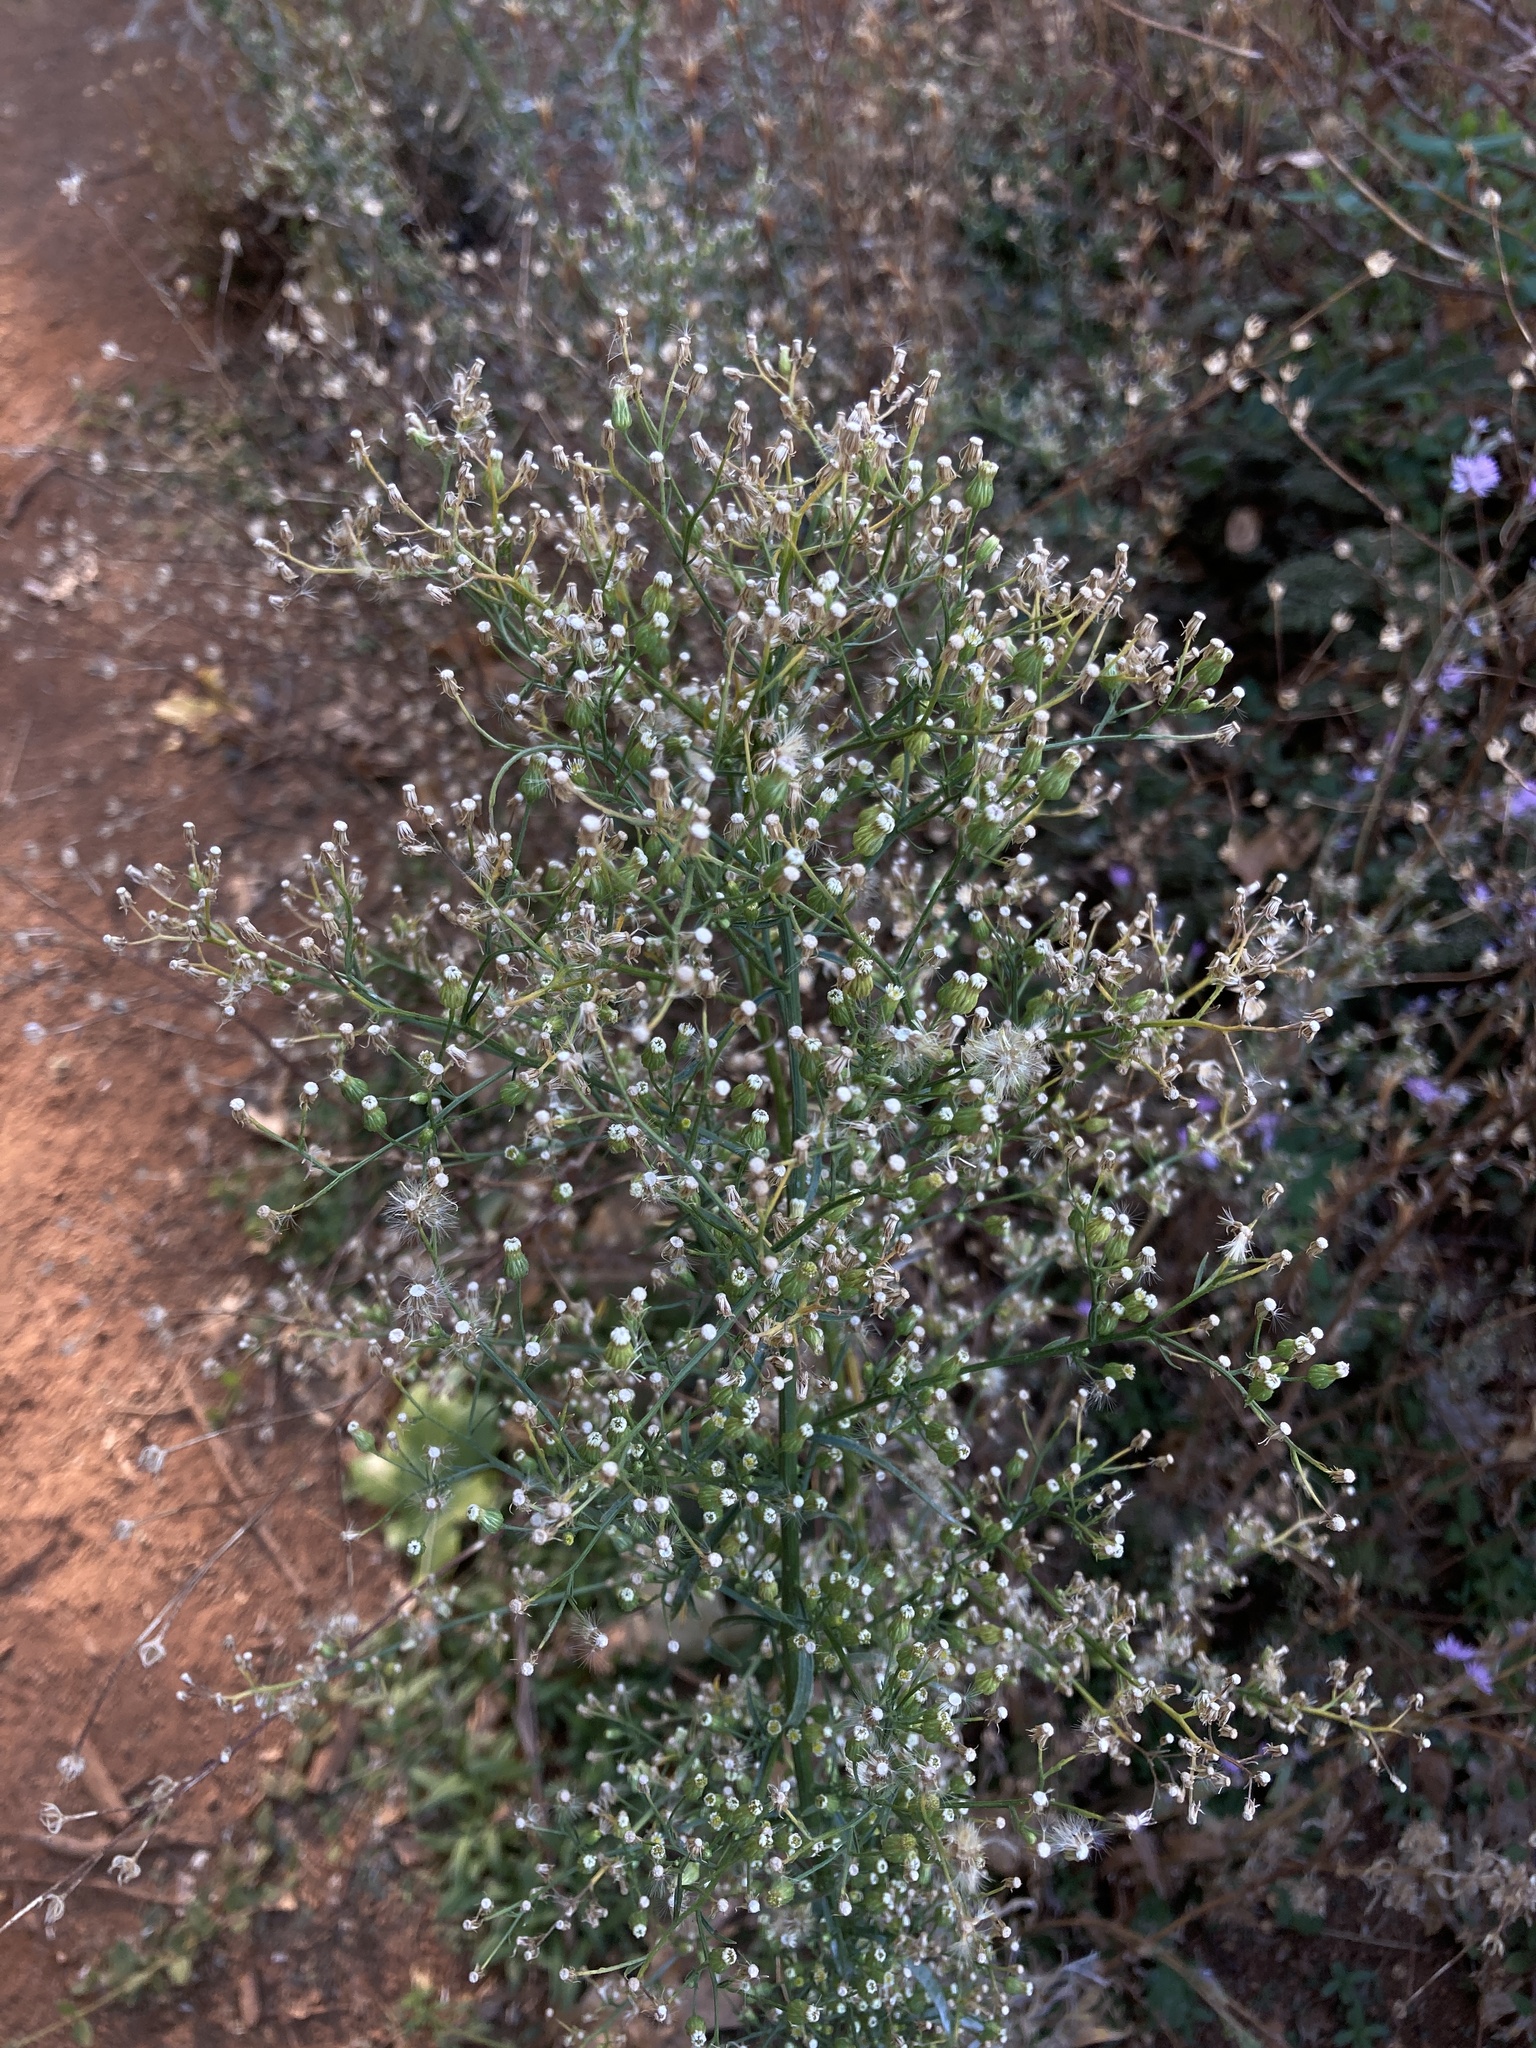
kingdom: Plantae
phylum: Tracheophyta
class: Magnoliopsida
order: Asterales
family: Asteraceae
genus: Erigeron
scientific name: Erigeron canadensis
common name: Canadian fleabane
